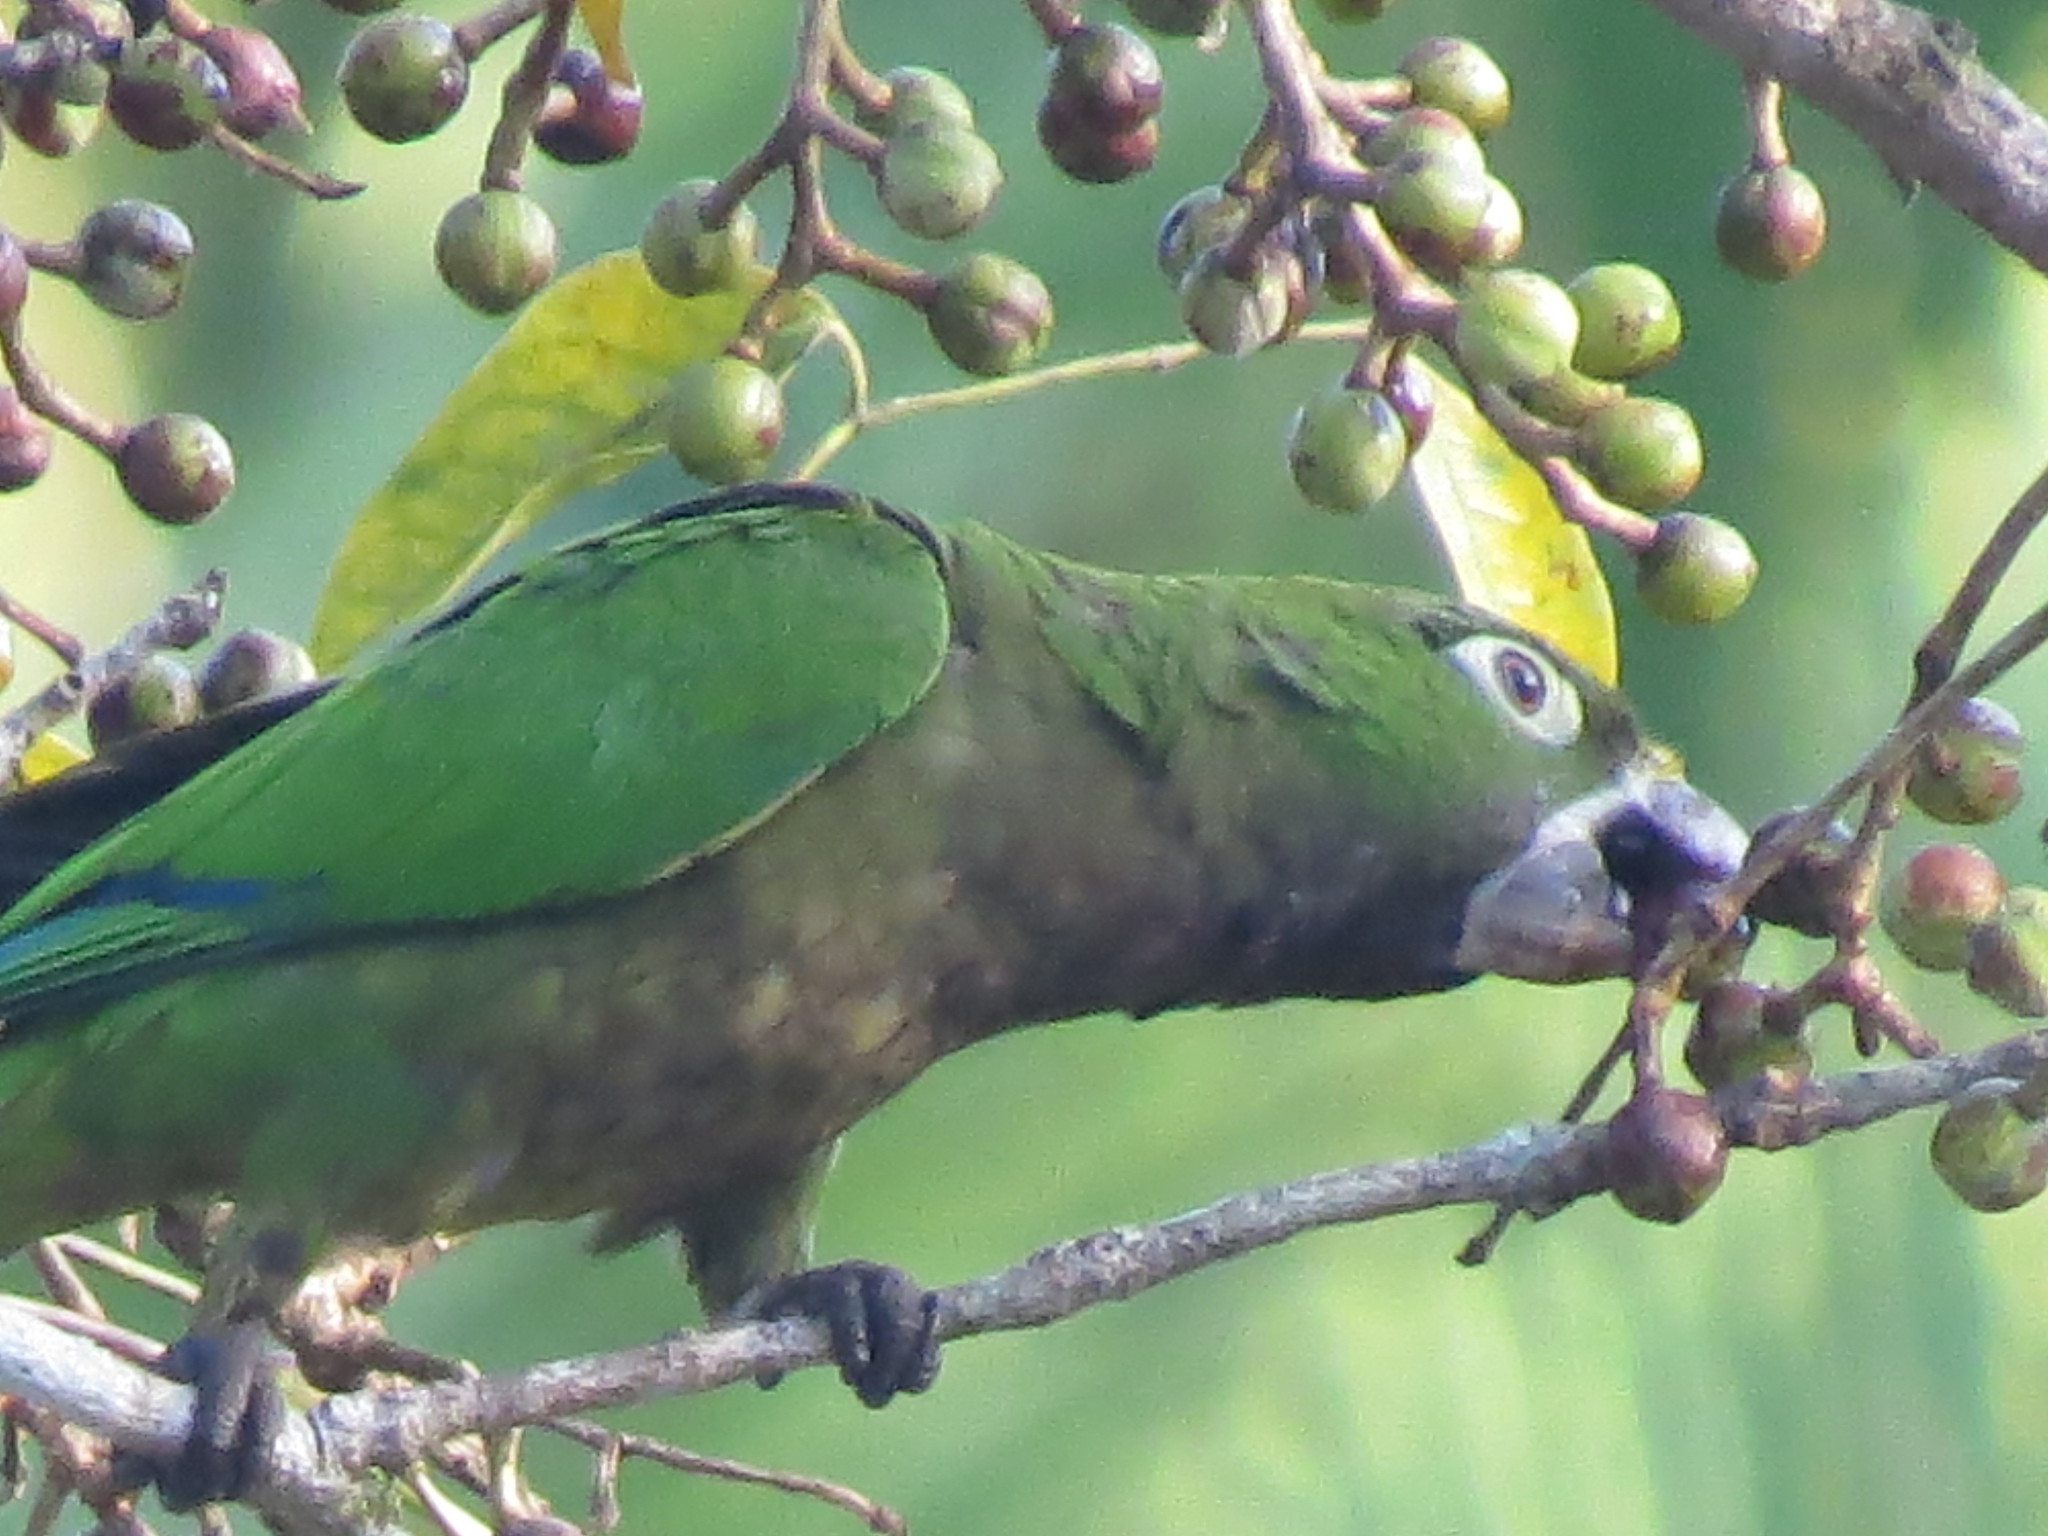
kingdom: Animalia
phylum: Chordata
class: Aves
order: Psittaciformes
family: Psittacidae
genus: Aratinga
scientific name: Aratinga nana
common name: Olive-throated parakeet
